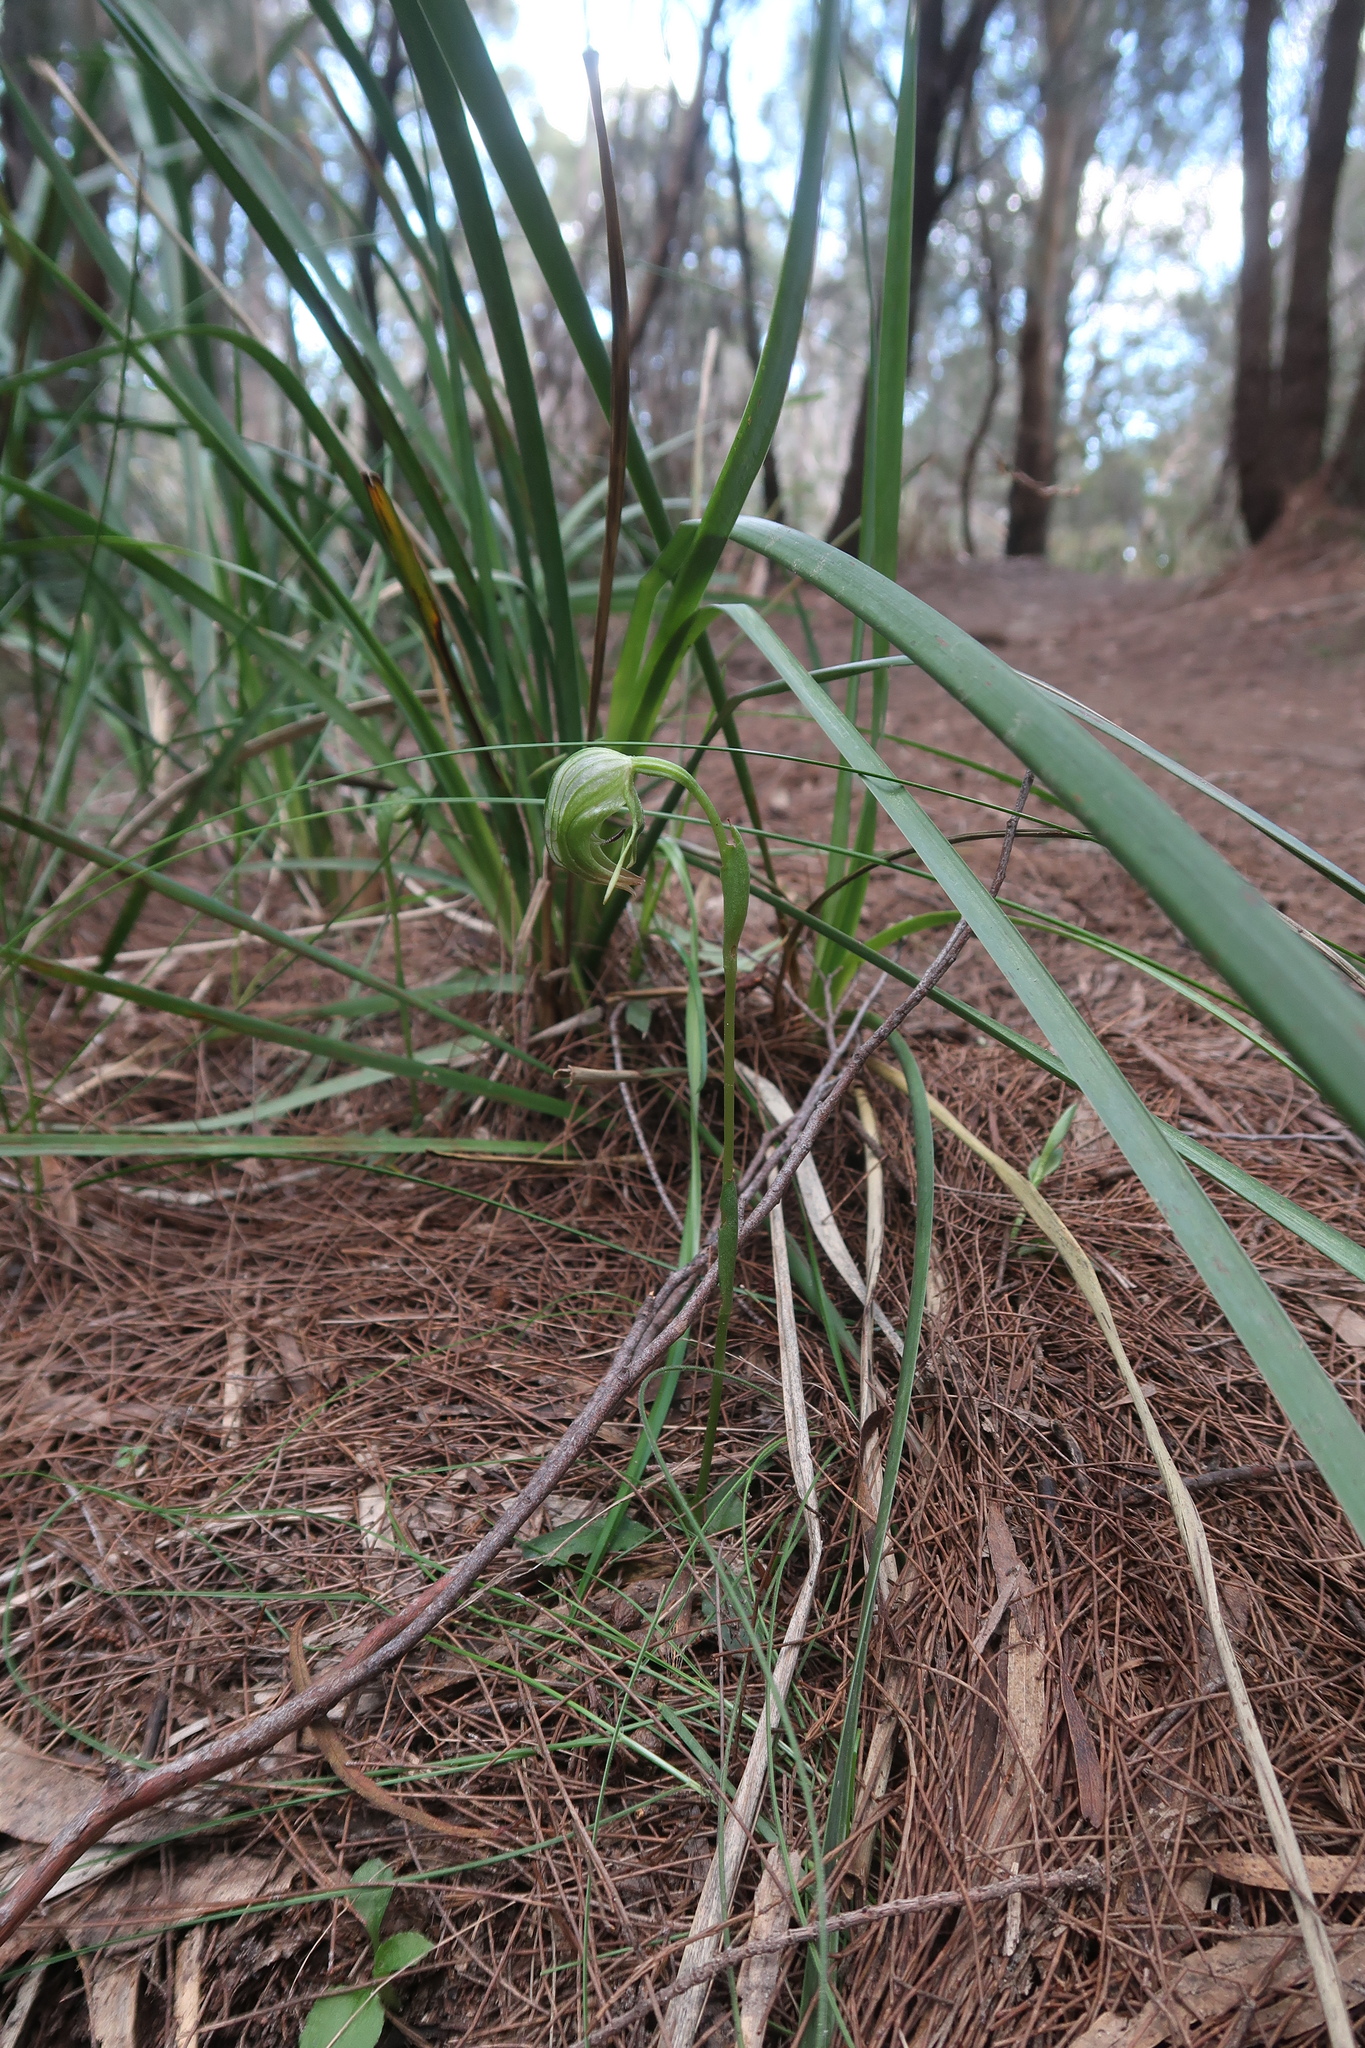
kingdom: Plantae
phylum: Tracheophyta
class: Liliopsida
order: Asparagales
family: Orchidaceae
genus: Pterostylis
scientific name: Pterostylis nutans
